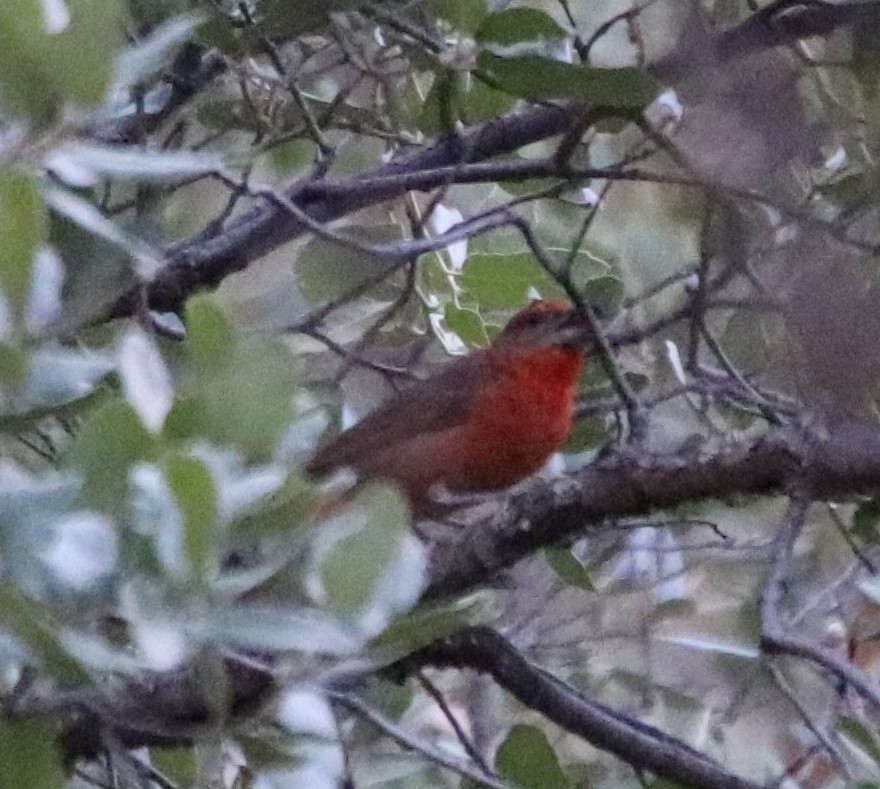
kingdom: Animalia
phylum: Chordata
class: Aves
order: Passeriformes
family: Cardinalidae
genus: Piranga
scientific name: Piranga flava
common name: Red tanager
